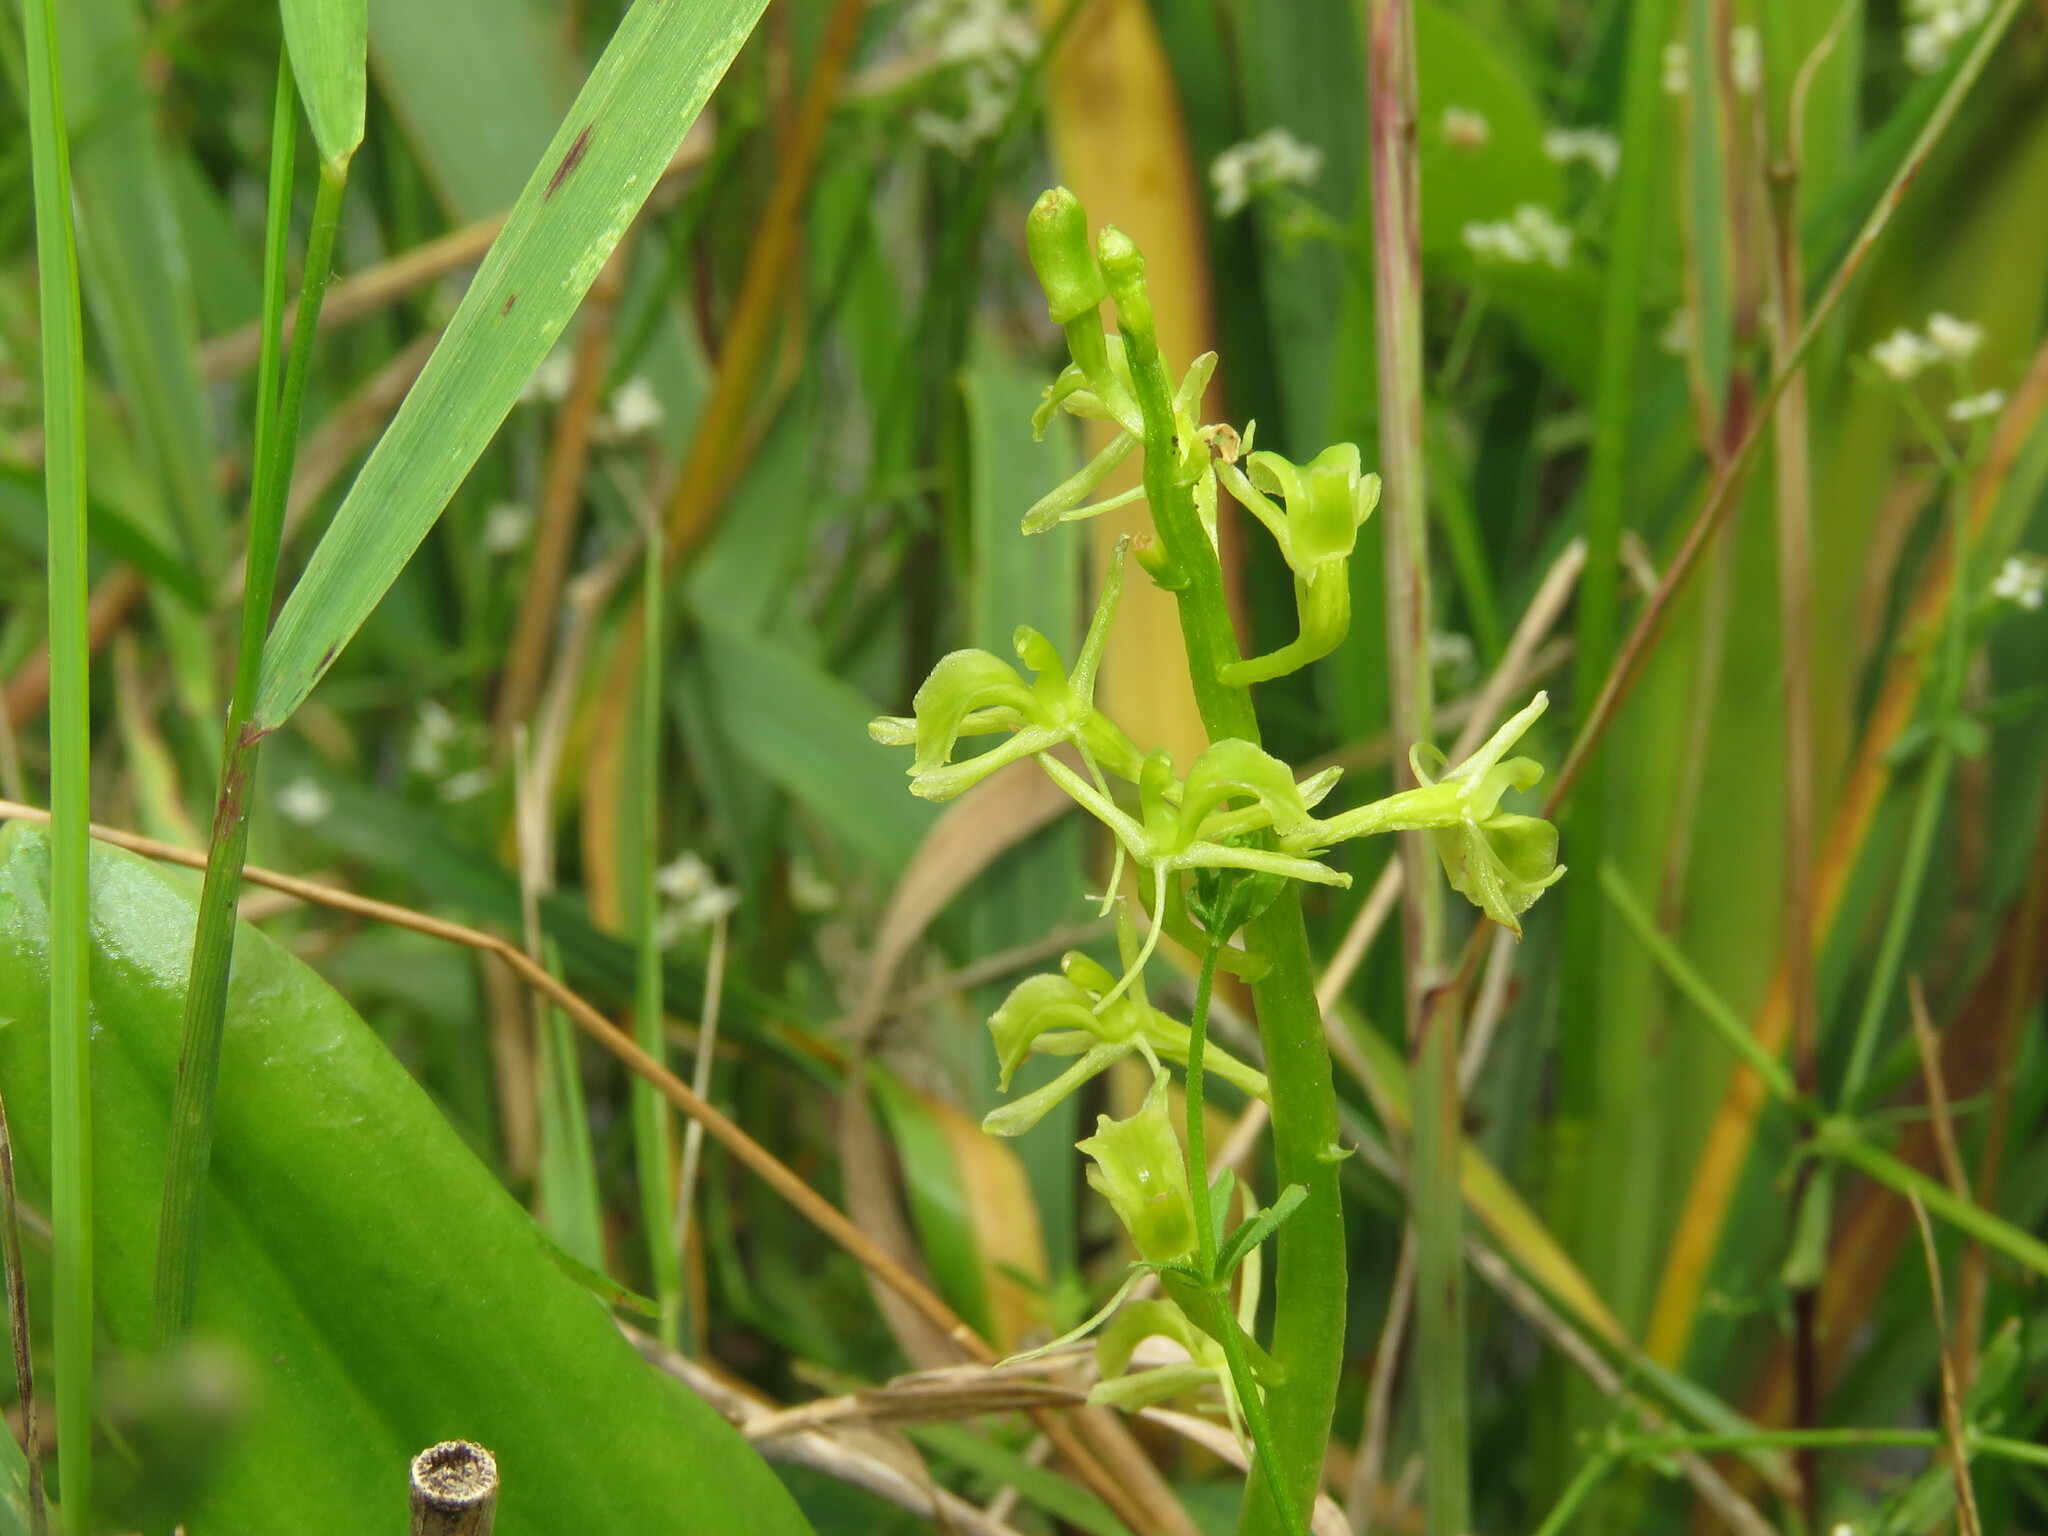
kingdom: Animalia
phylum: Arthropoda
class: Insecta
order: Coleoptera
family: Curculionidae
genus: Liparis
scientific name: Liparis loeselii
